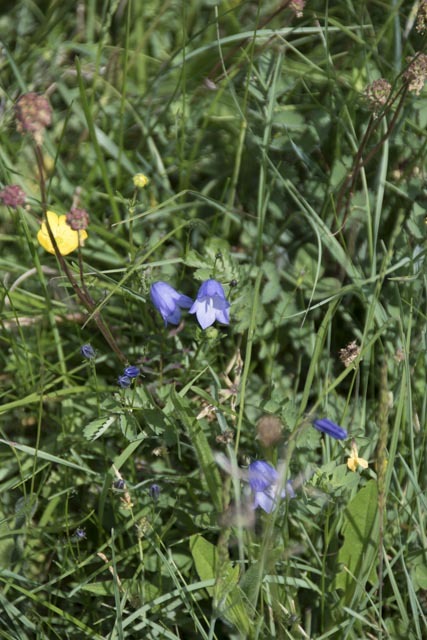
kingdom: Plantae
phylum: Tracheophyta
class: Magnoliopsida
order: Asterales
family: Campanulaceae
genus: Campanula
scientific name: Campanula rotundifolia
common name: Harebell
